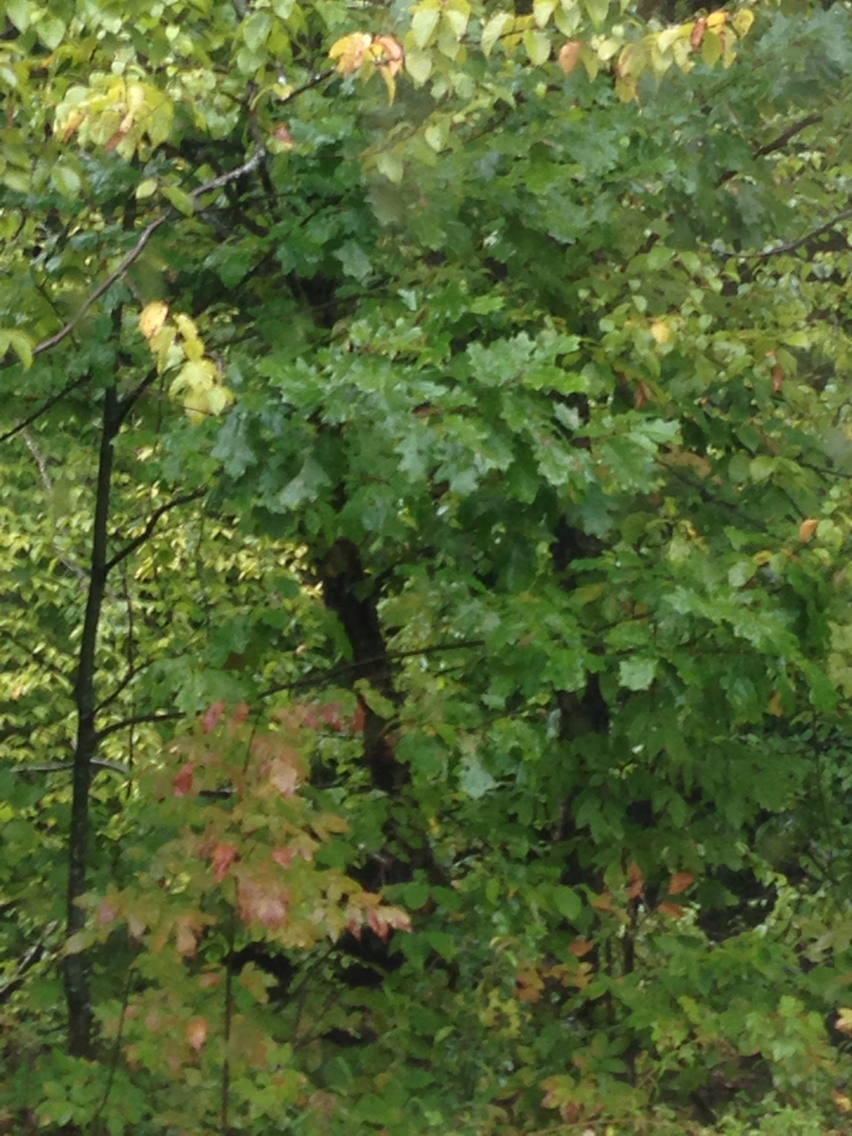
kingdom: Plantae
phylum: Tracheophyta
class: Magnoliopsida
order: Fagales
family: Fagaceae
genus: Quercus
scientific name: Quercus rubra
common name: Red oak
